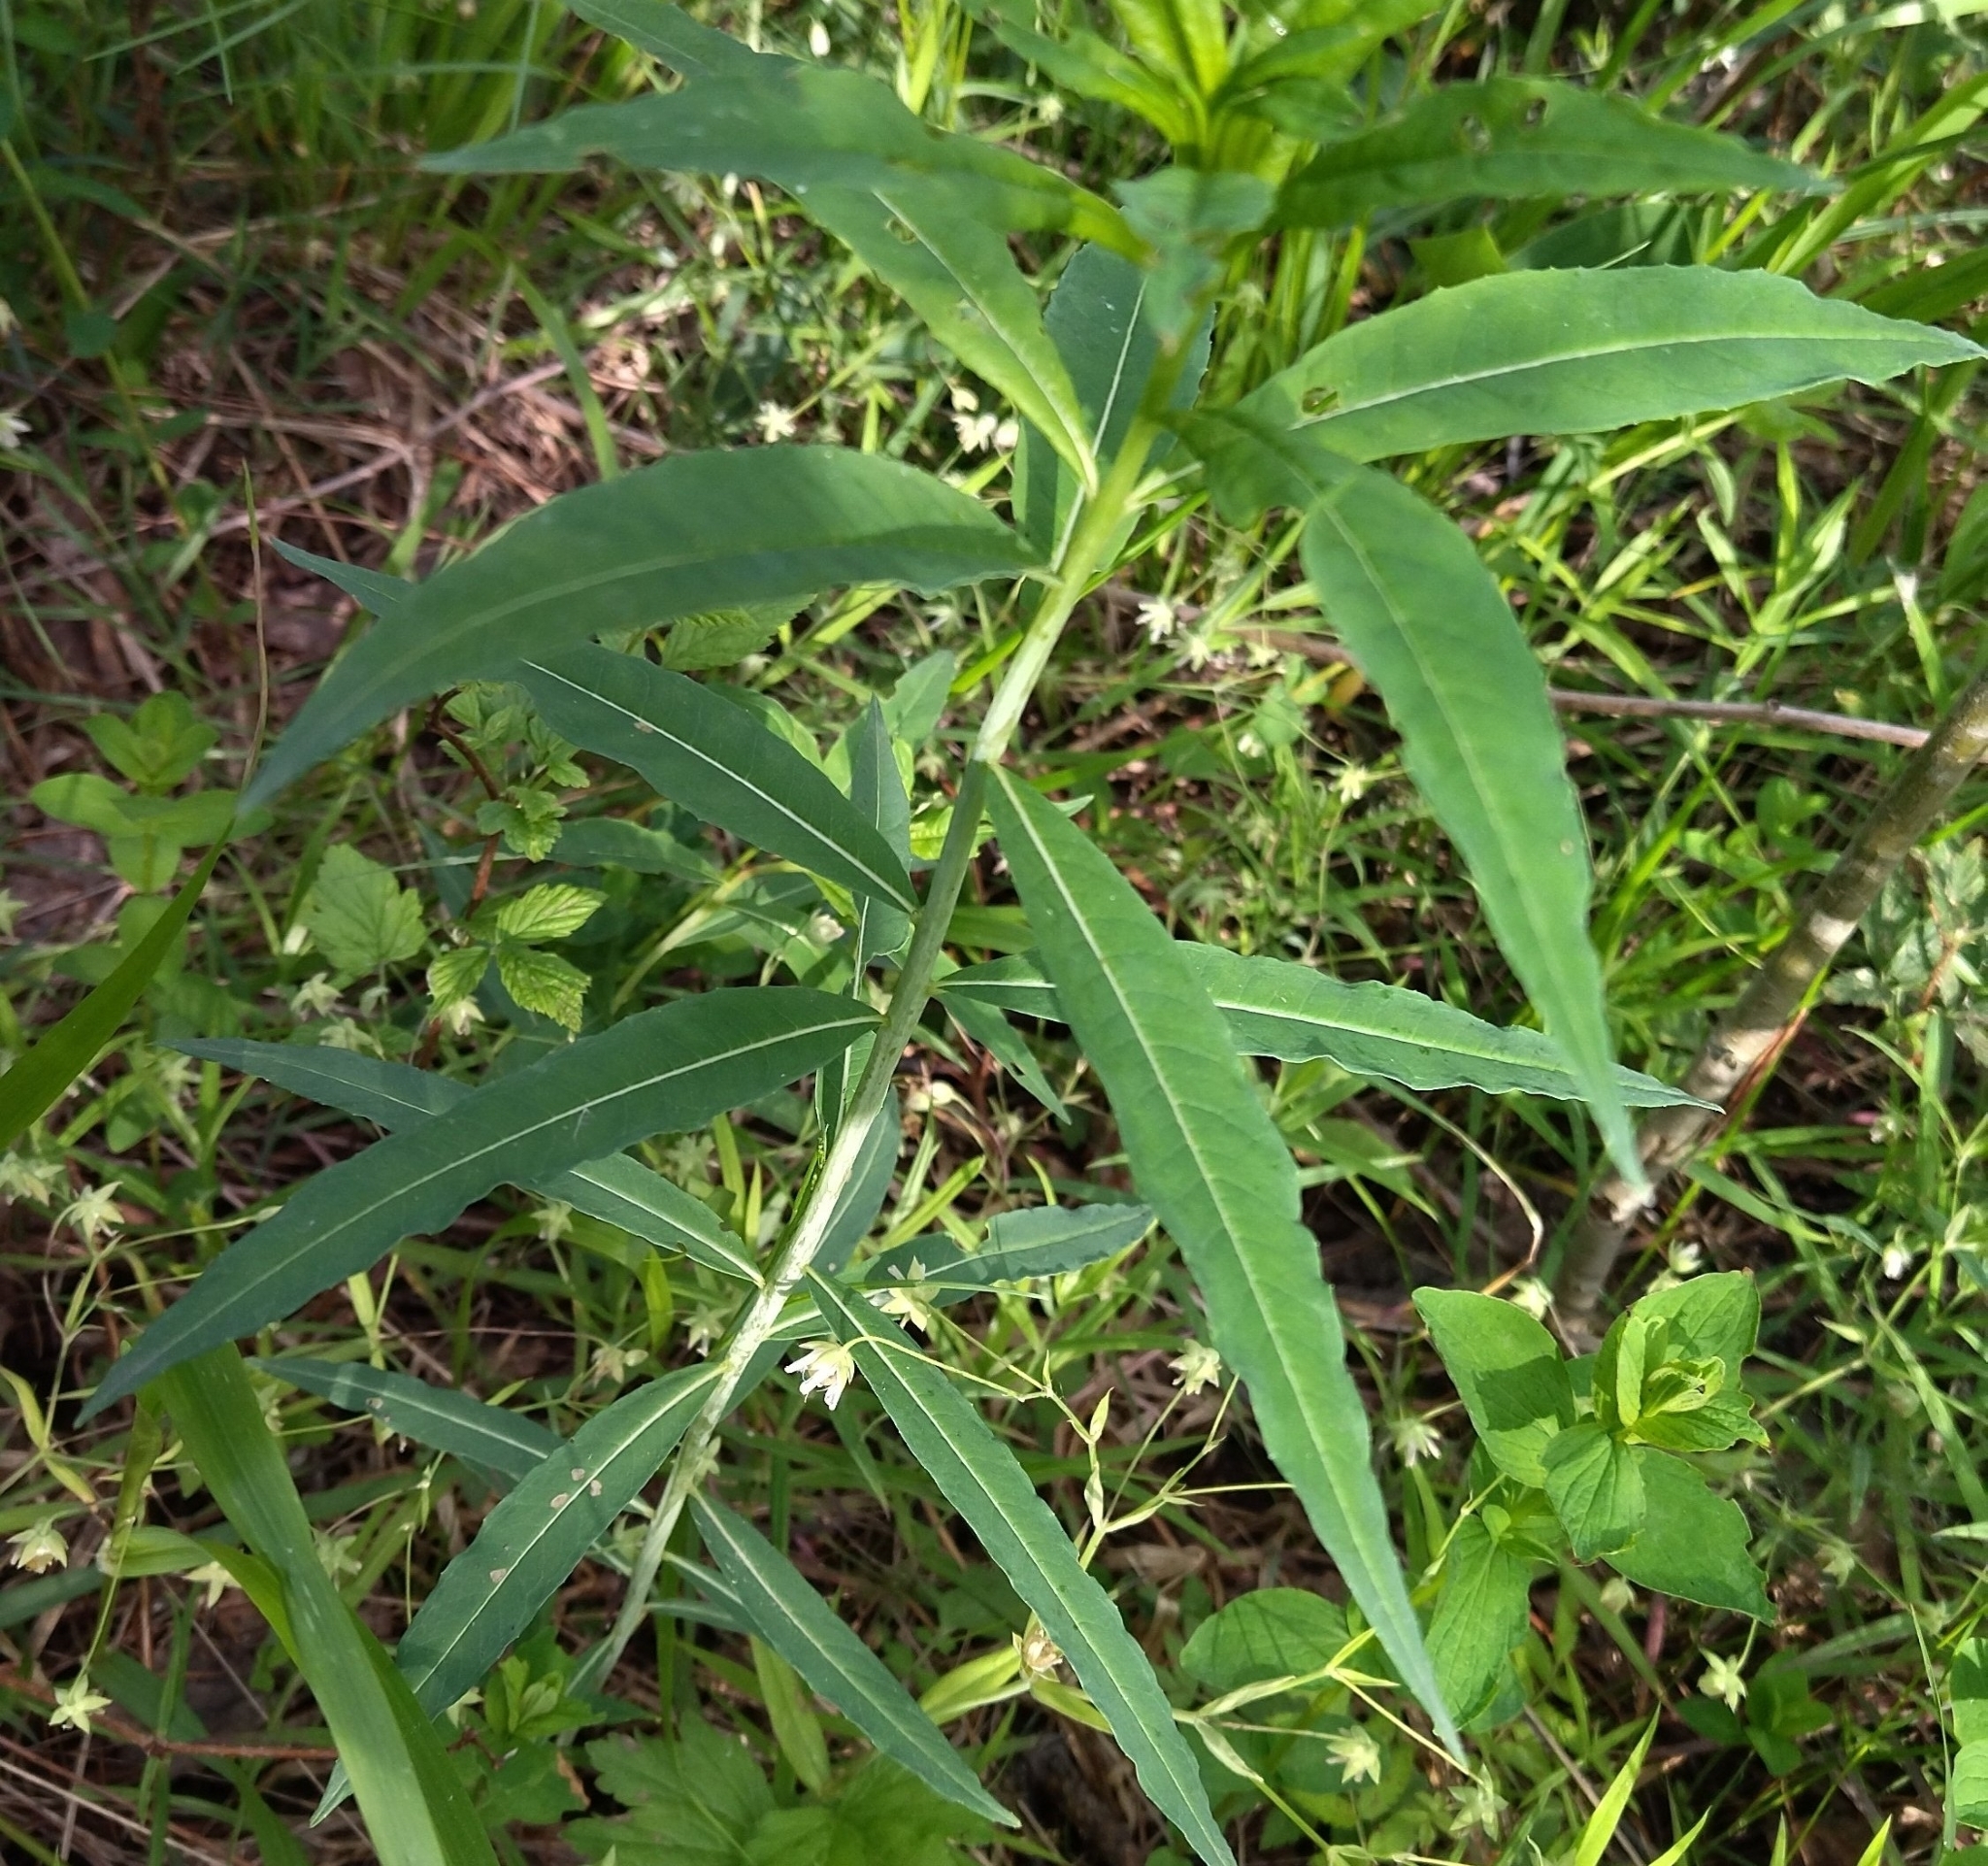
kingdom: Plantae
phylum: Tracheophyta
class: Magnoliopsida
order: Myrtales
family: Onagraceae
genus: Chamaenerion
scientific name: Chamaenerion angustifolium
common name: Fireweed
